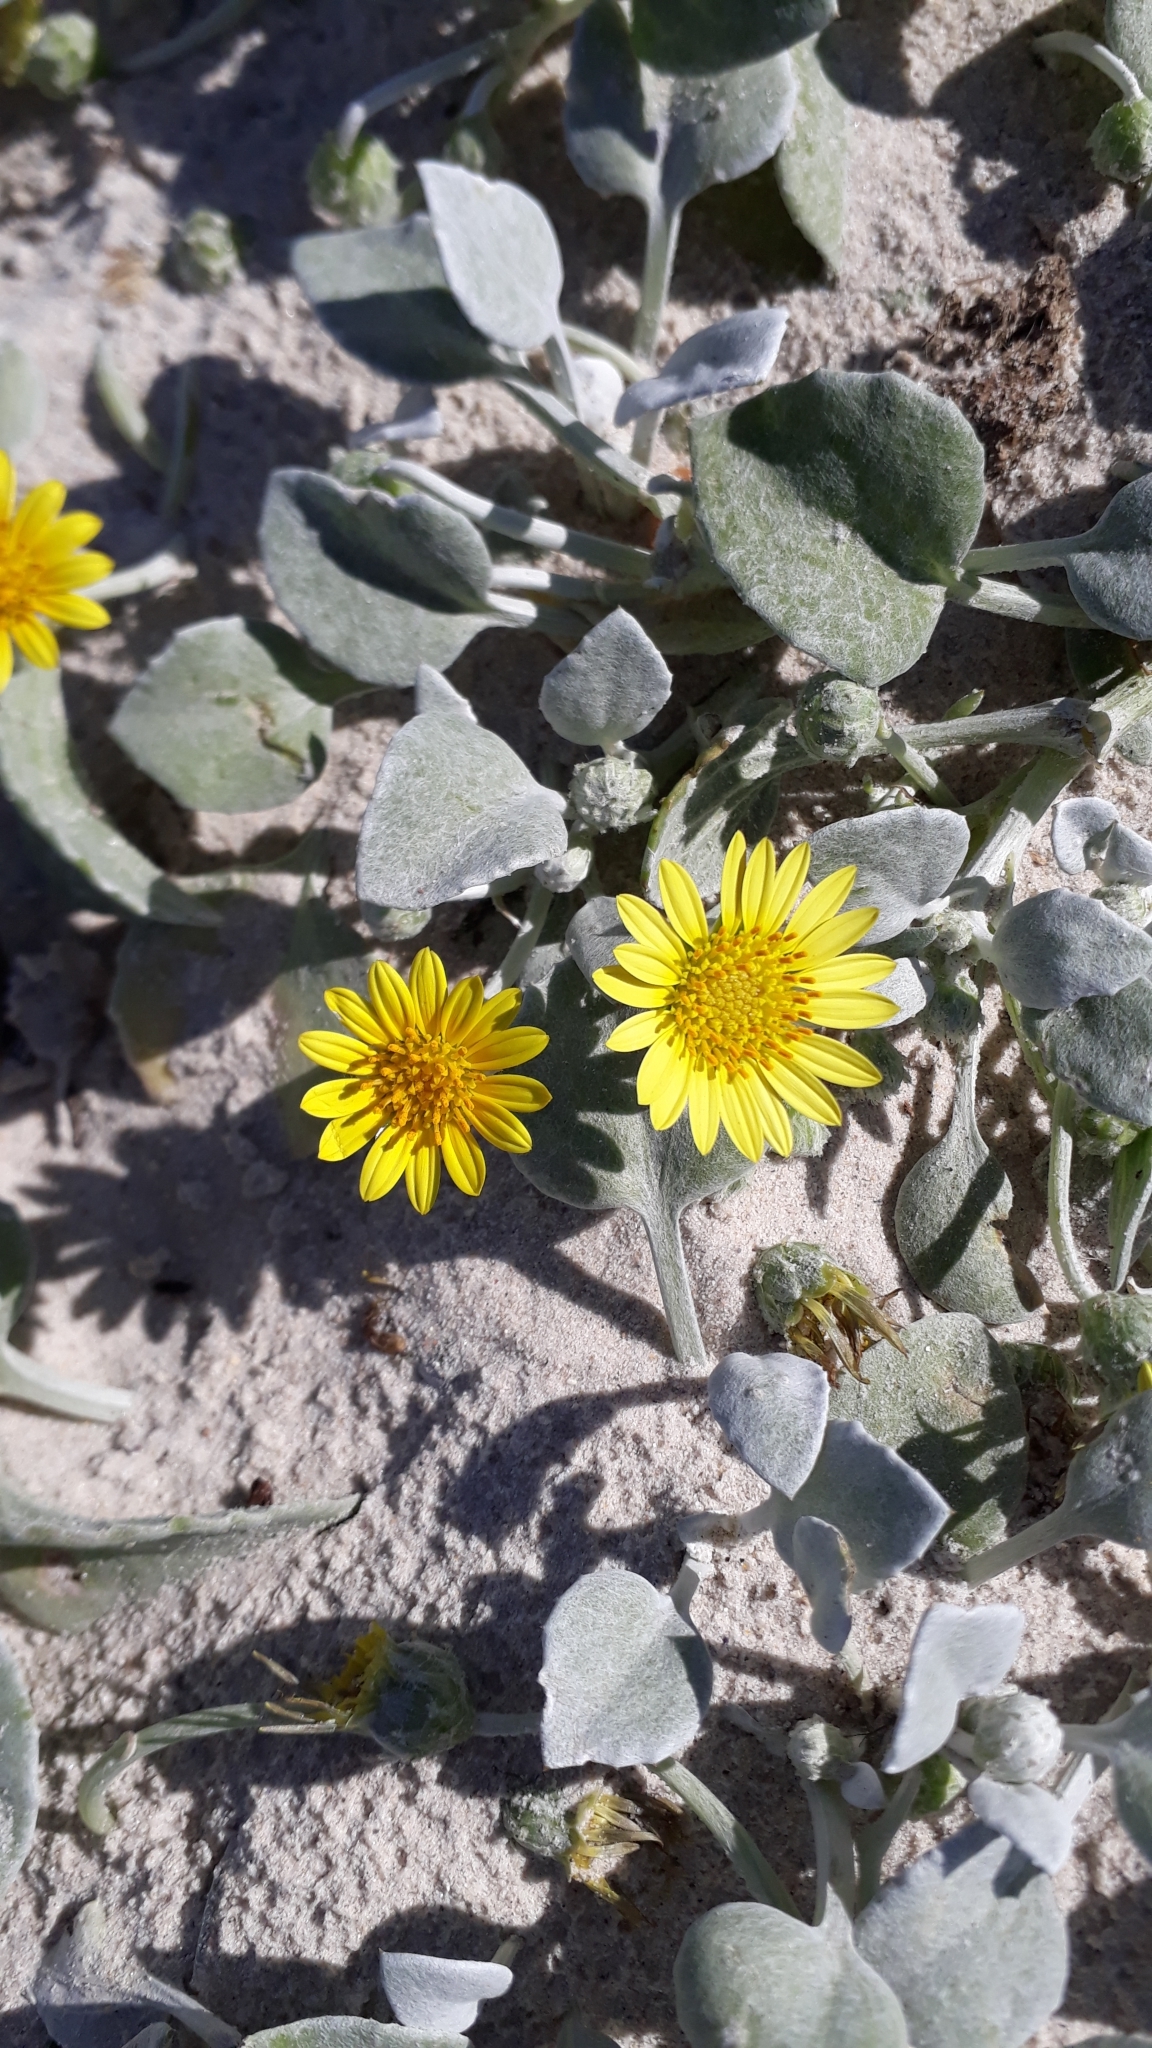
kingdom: Plantae
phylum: Tracheophyta
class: Magnoliopsida
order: Asterales
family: Asteraceae
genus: Arctotheca
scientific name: Arctotheca populifolia
